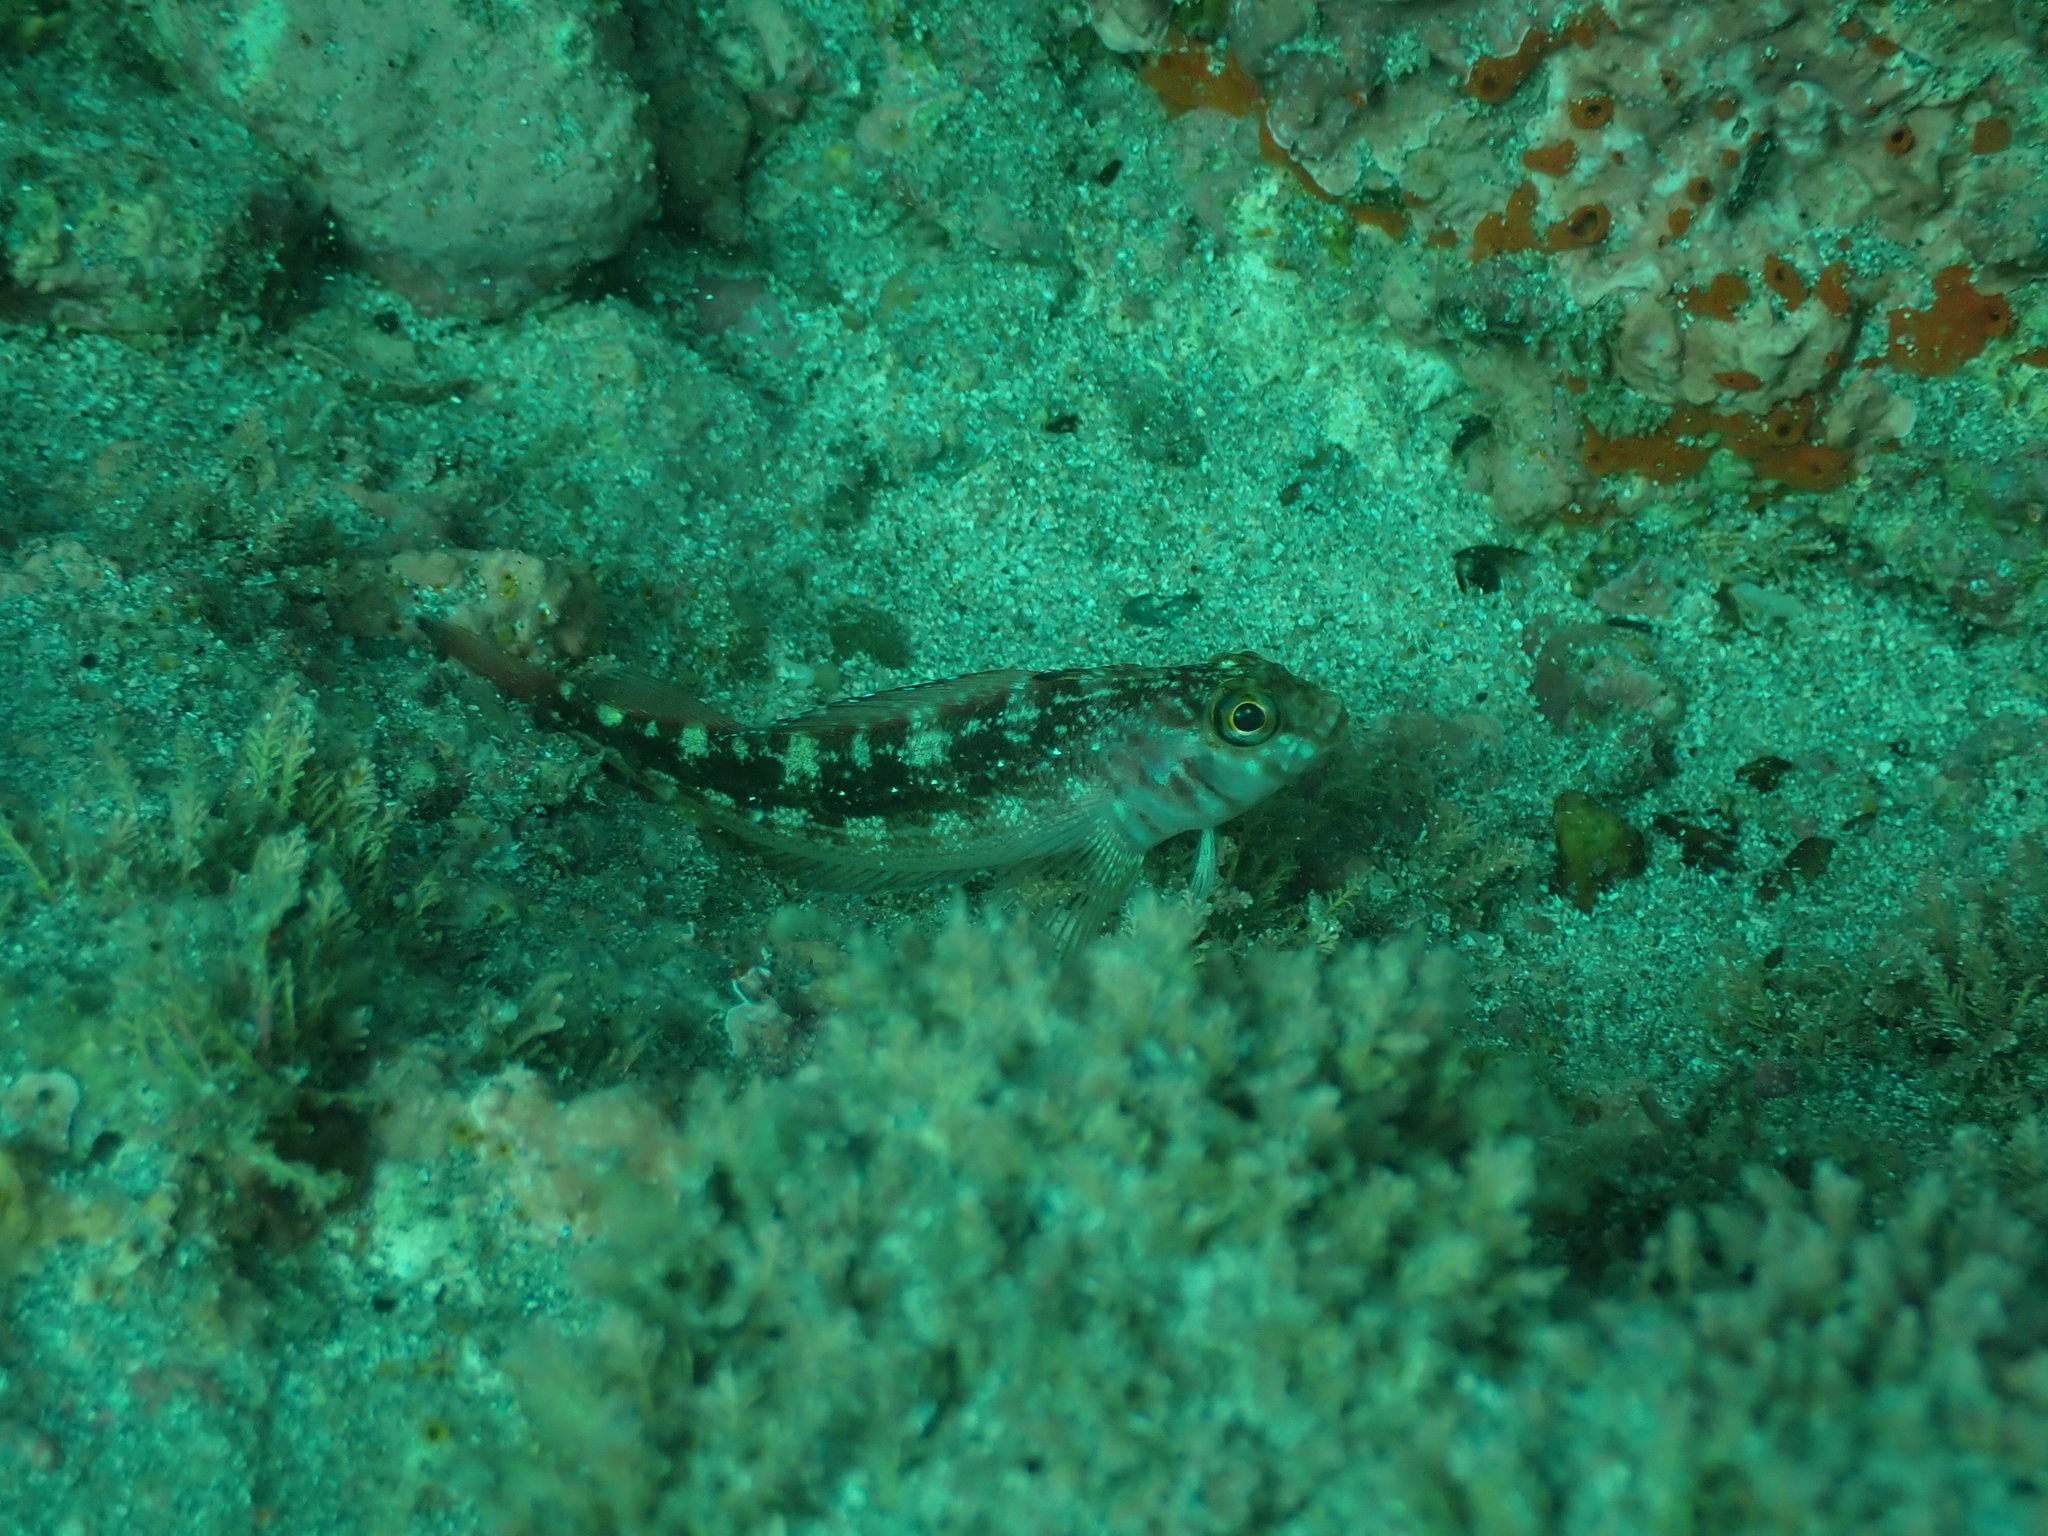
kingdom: Animalia
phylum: Chordata
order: Perciformes
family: Tripterygiidae
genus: Forsterygion
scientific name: Forsterygion varium
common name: Variable triplefin
